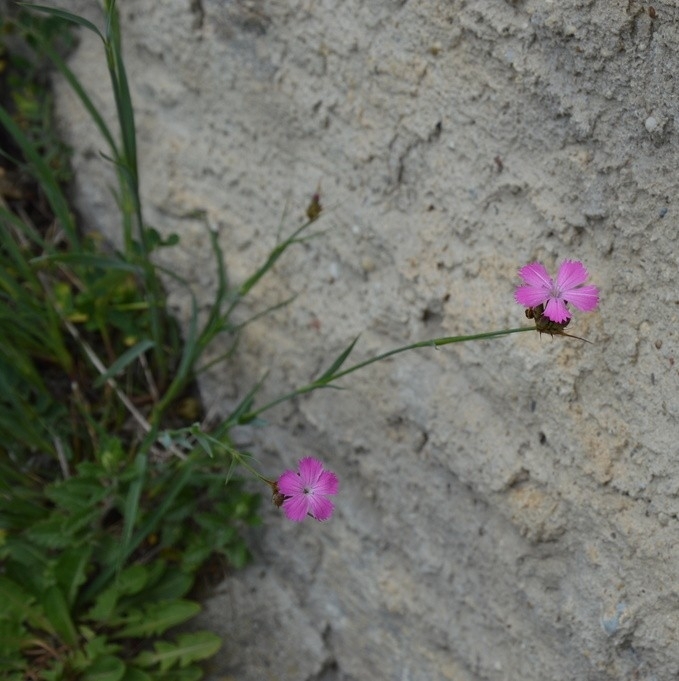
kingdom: Plantae
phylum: Tracheophyta
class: Magnoliopsida
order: Caryophyllales
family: Caryophyllaceae
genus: Dianthus
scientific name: Dianthus carthusianorum
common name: Carthusian pink
